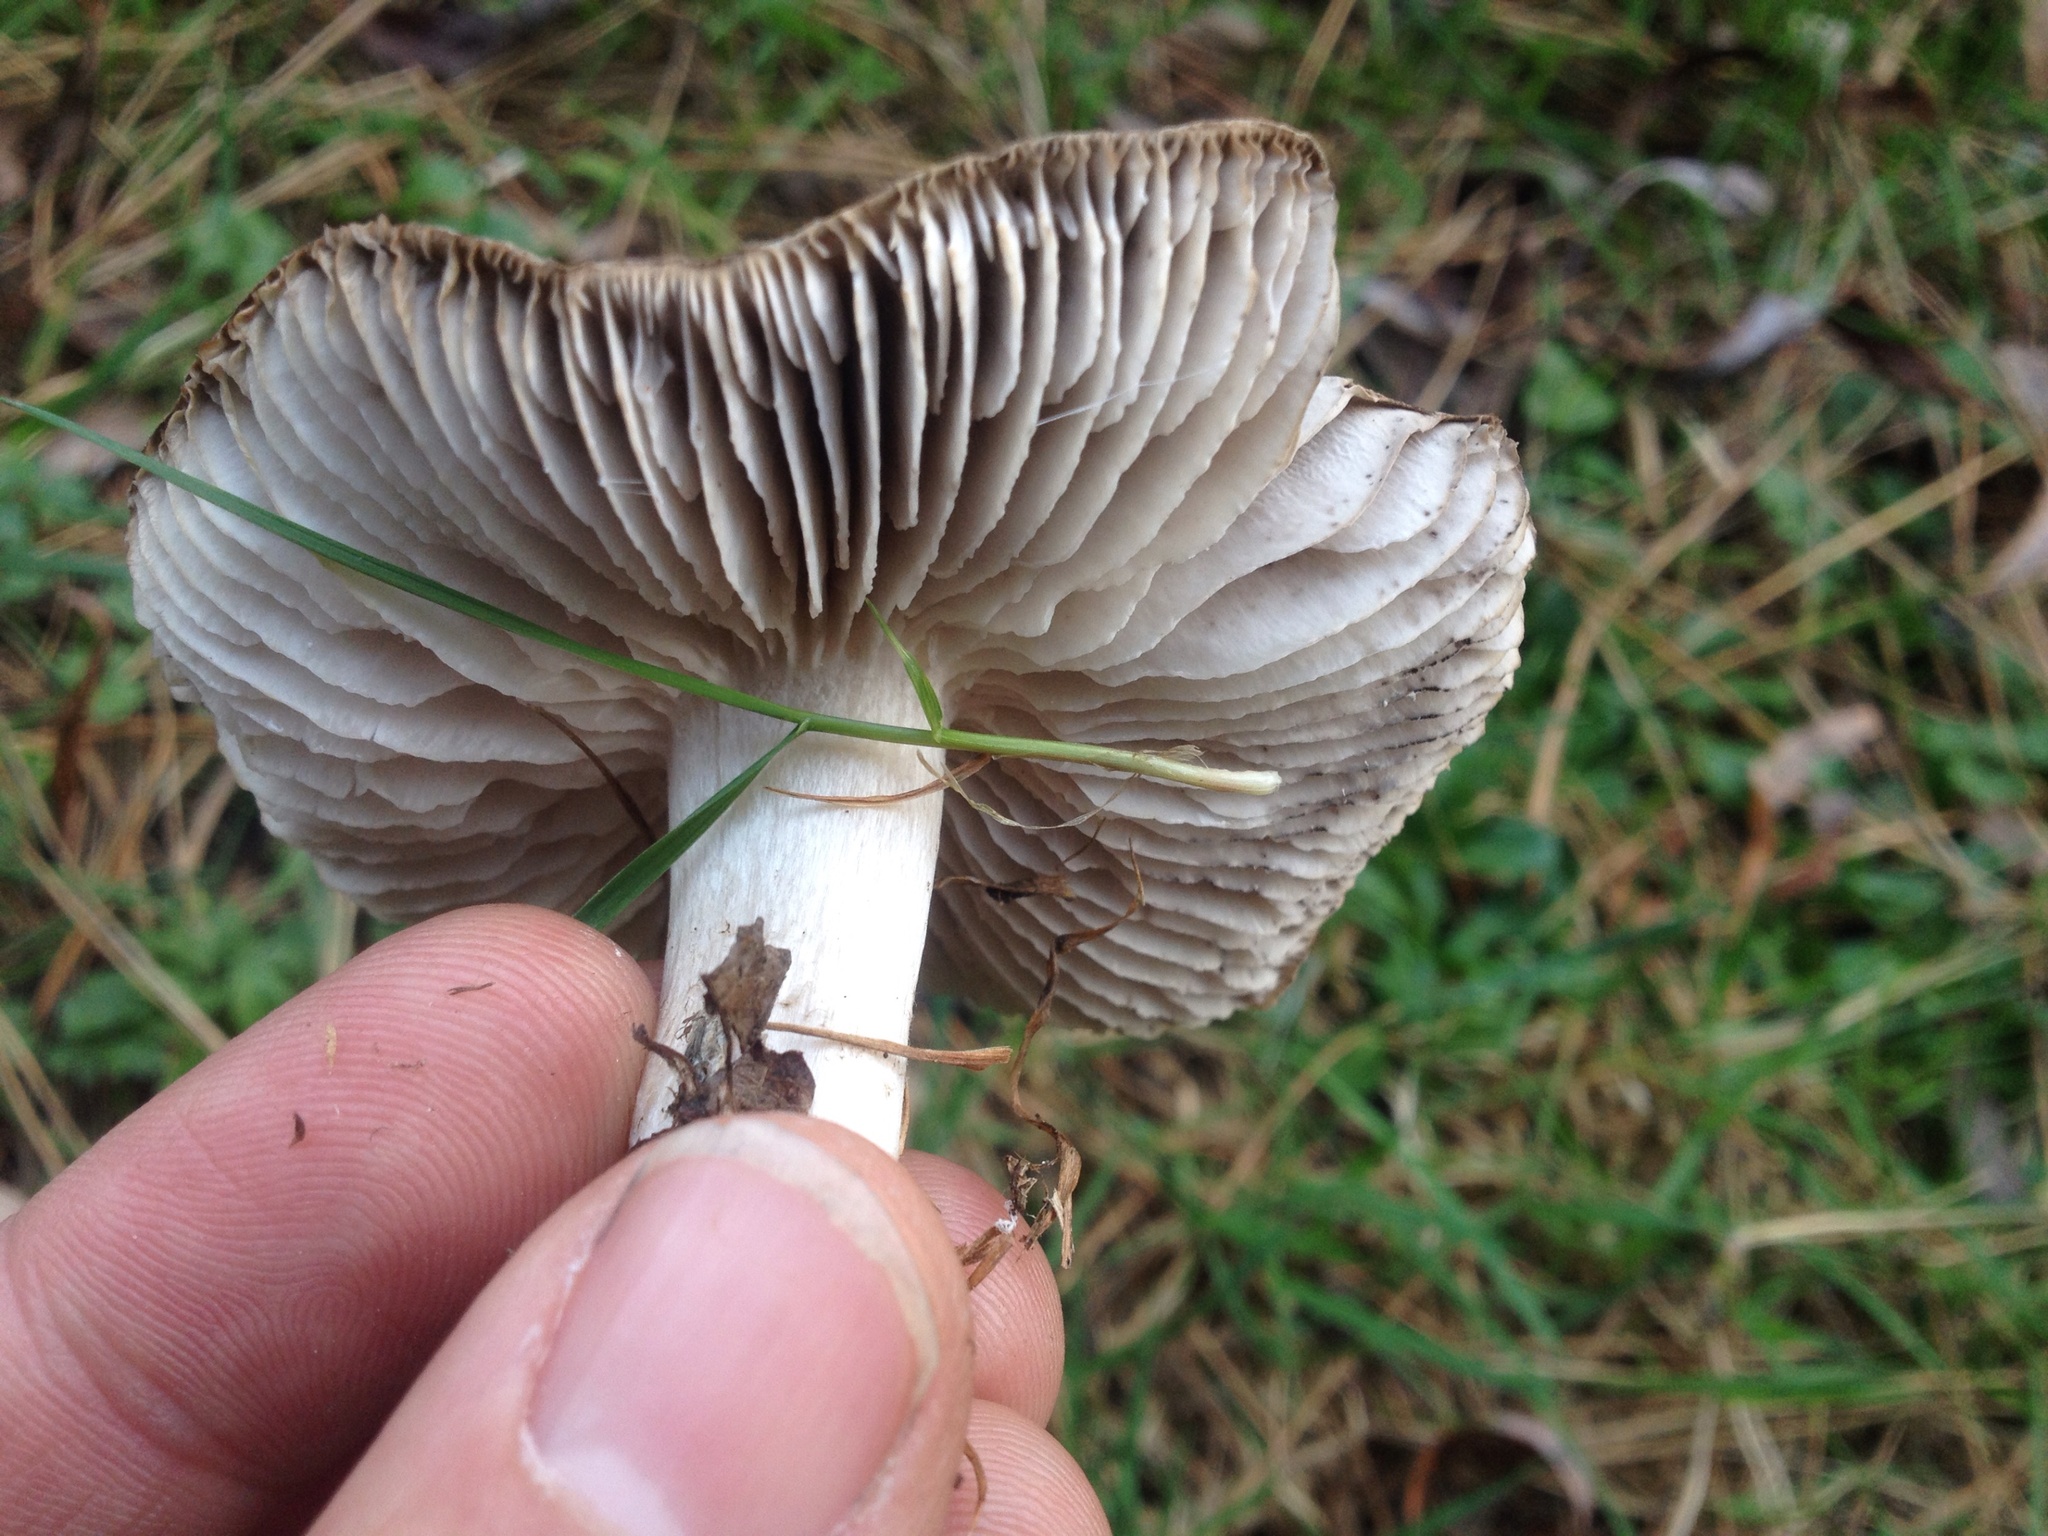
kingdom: Fungi
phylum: Basidiomycota
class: Agaricomycetes
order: Agaricales
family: Tricholomataceae
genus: Tricholoma
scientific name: Tricholoma terreum
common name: Grey knight
